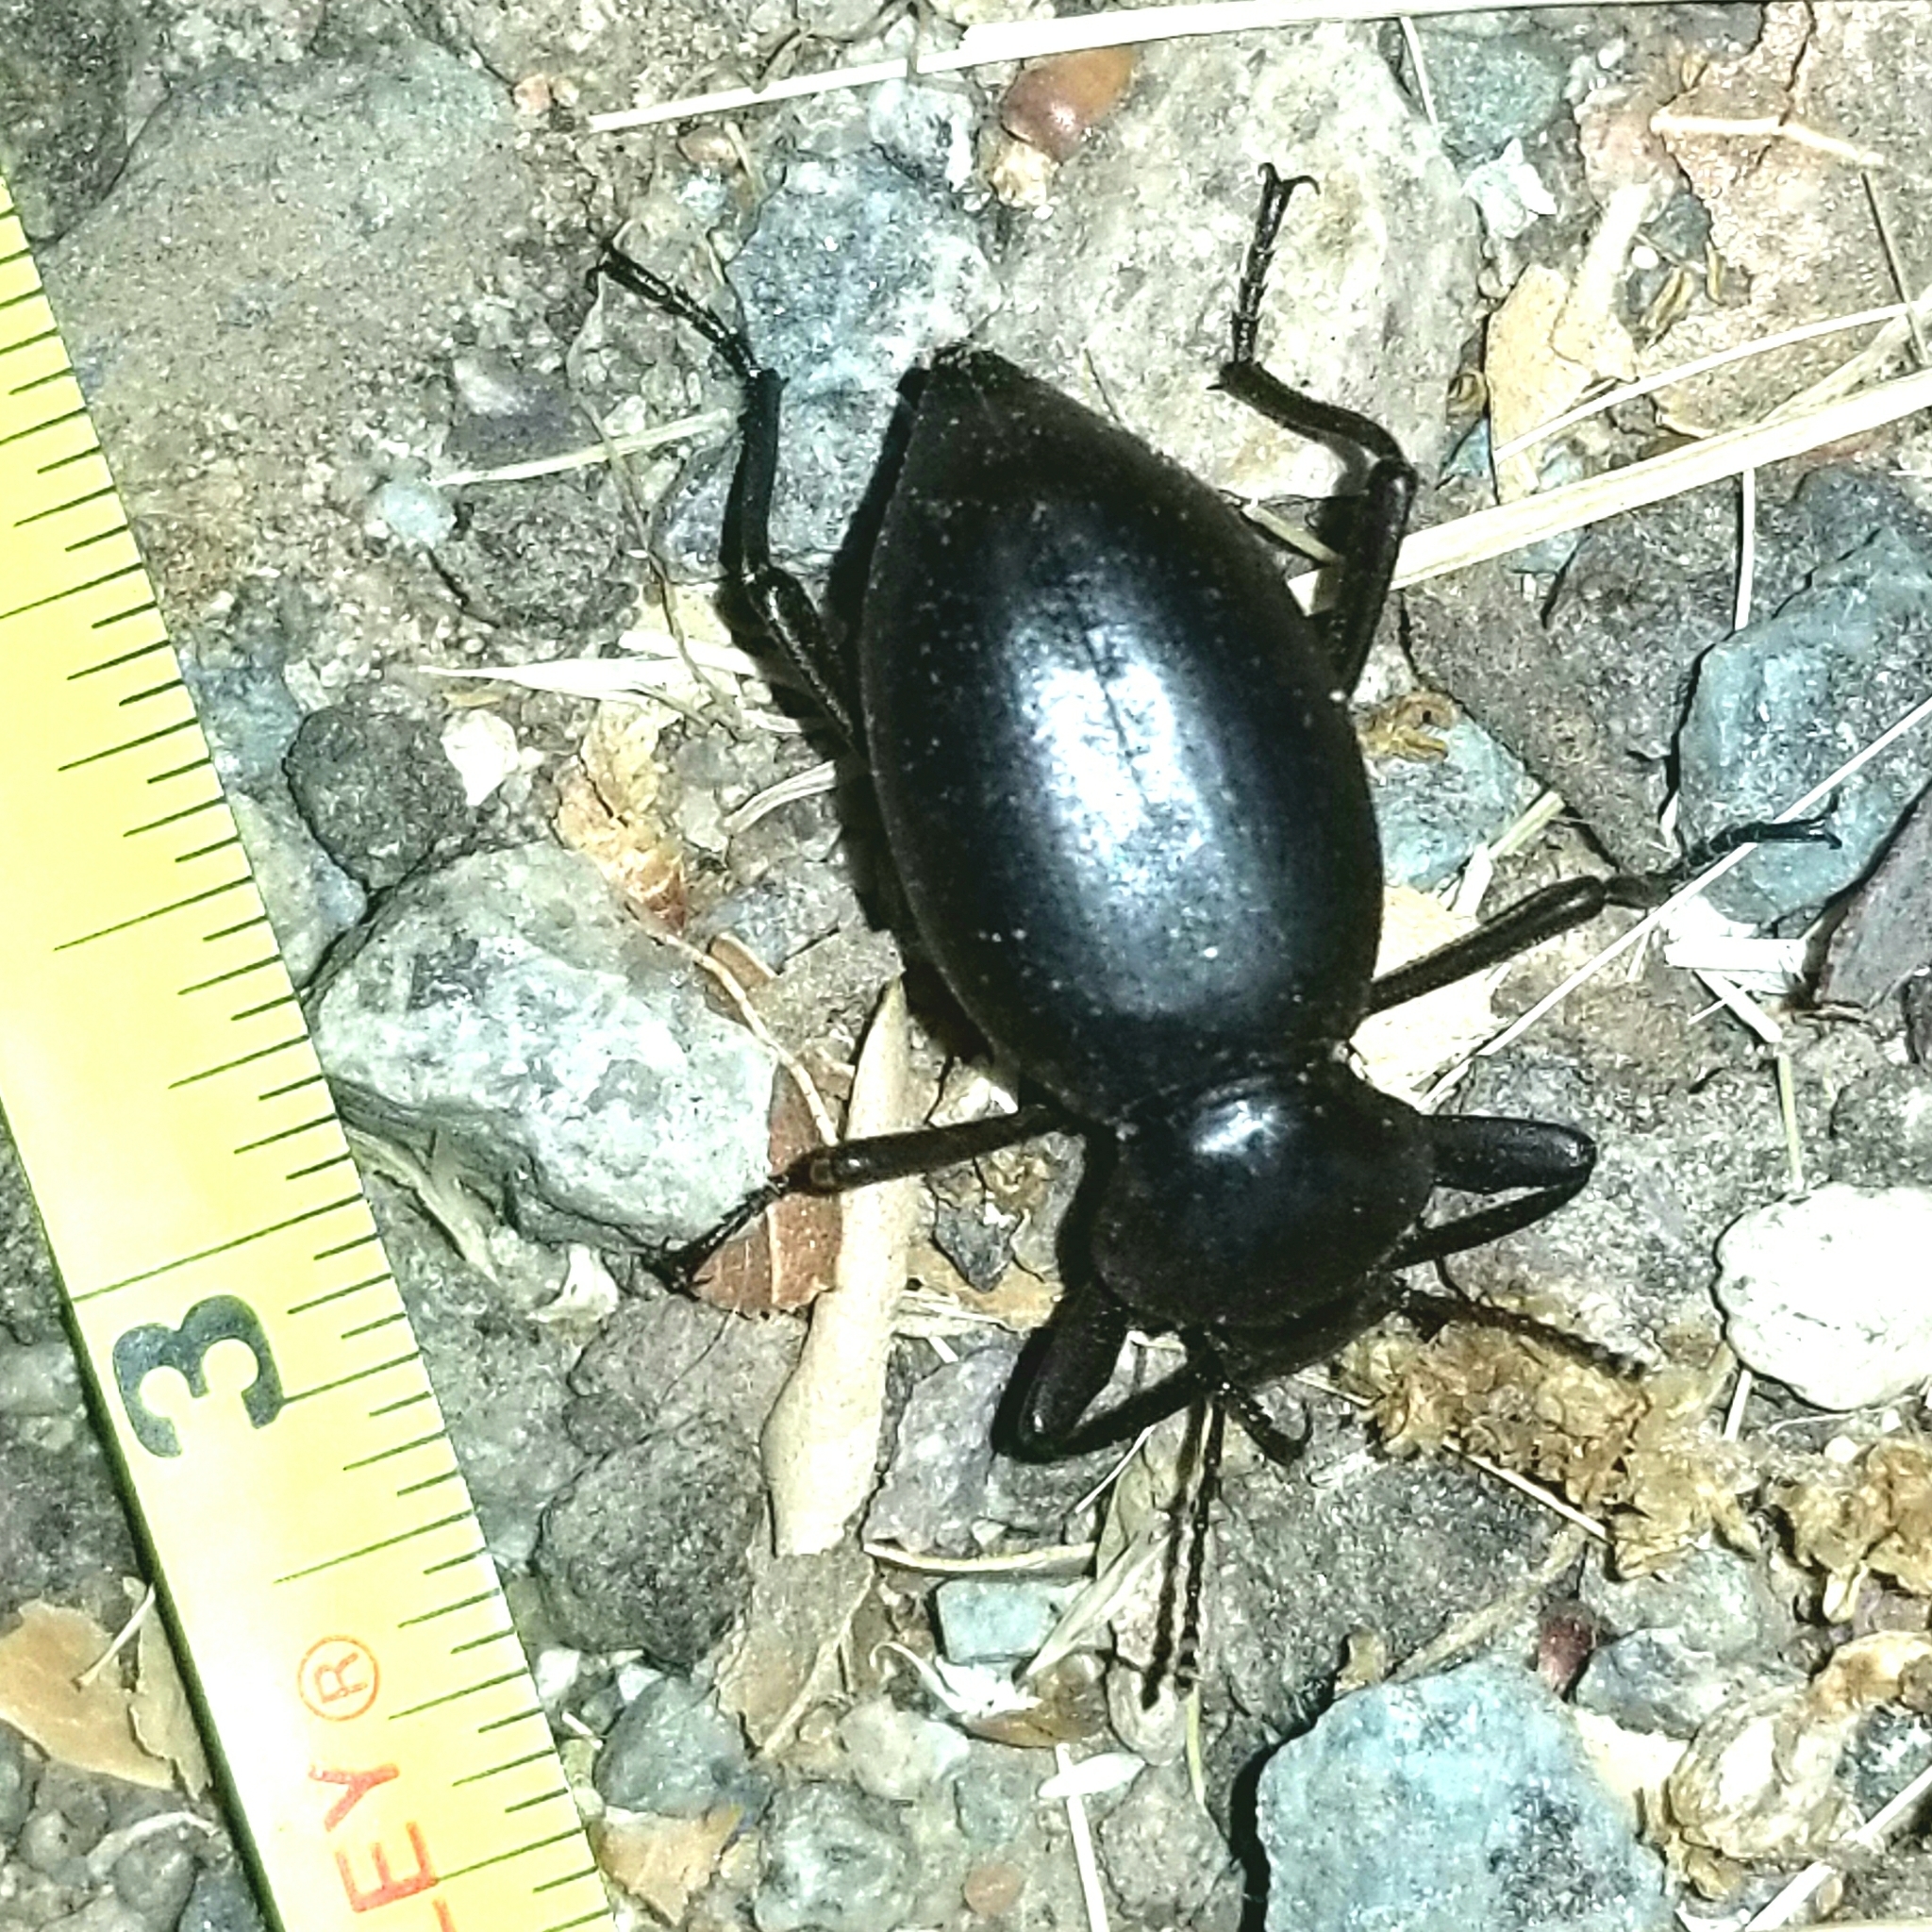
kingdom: Animalia
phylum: Arthropoda
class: Insecta
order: Coleoptera
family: Tenebrionidae
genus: Eleodes
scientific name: Eleodes acuticauda
